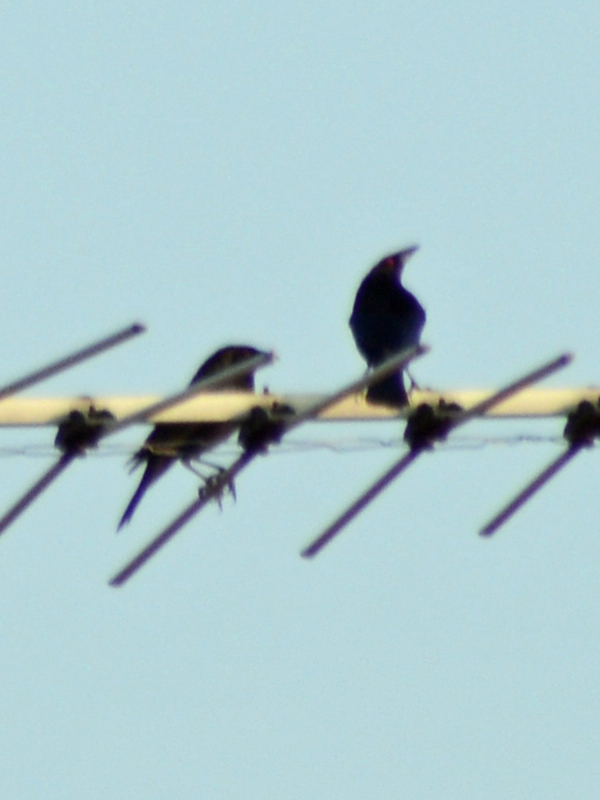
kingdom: Animalia
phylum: Chordata
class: Aves
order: Passeriformes
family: Icteridae
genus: Molothrus
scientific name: Molothrus aeneus
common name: Bronzed cowbird
